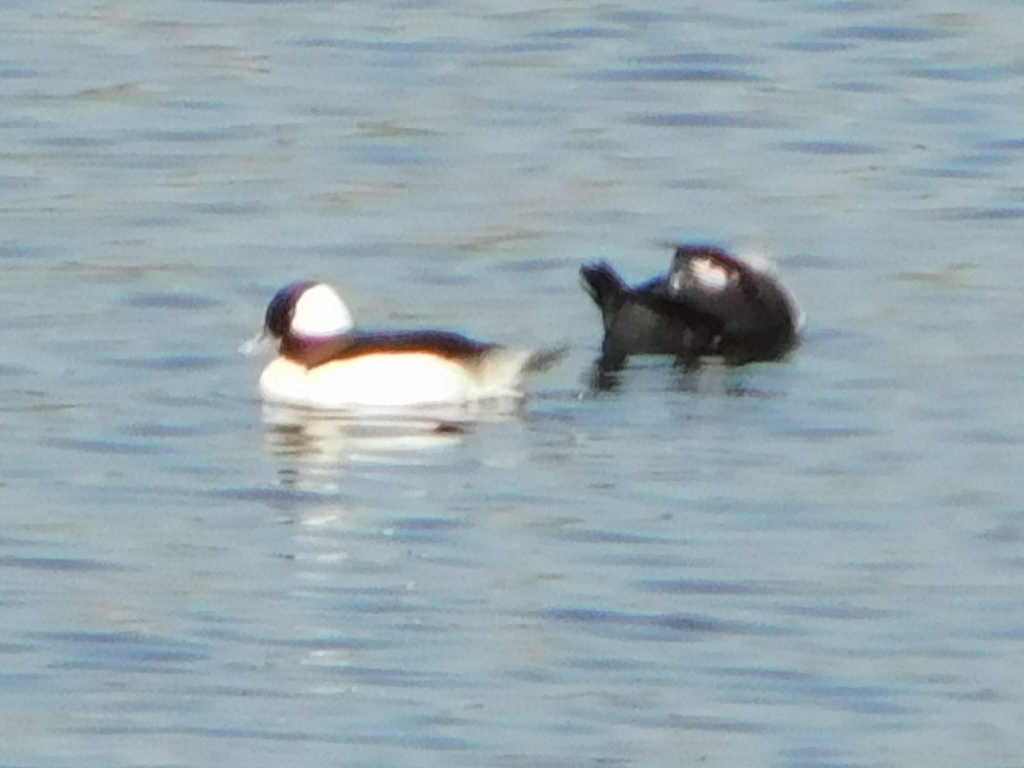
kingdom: Animalia
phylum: Chordata
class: Aves
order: Anseriformes
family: Anatidae
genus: Bucephala
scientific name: Bucephala albeola
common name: Bufflehead
